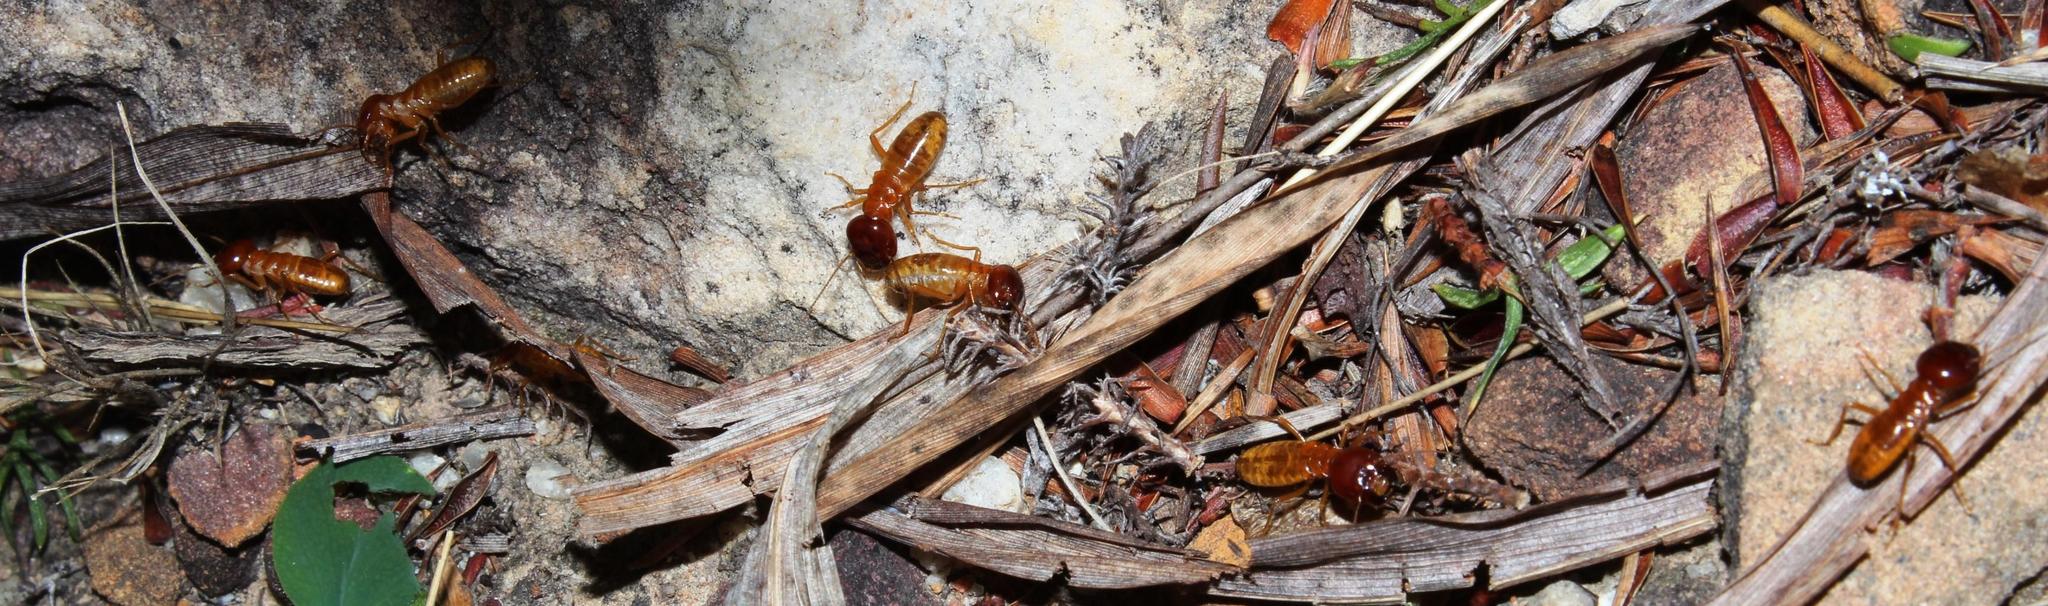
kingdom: Animalia
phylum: Arthropoda
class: Insecta
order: Blattodea
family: Hodotermitidae
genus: Microhodotermes
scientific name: Microhodotermes viator
